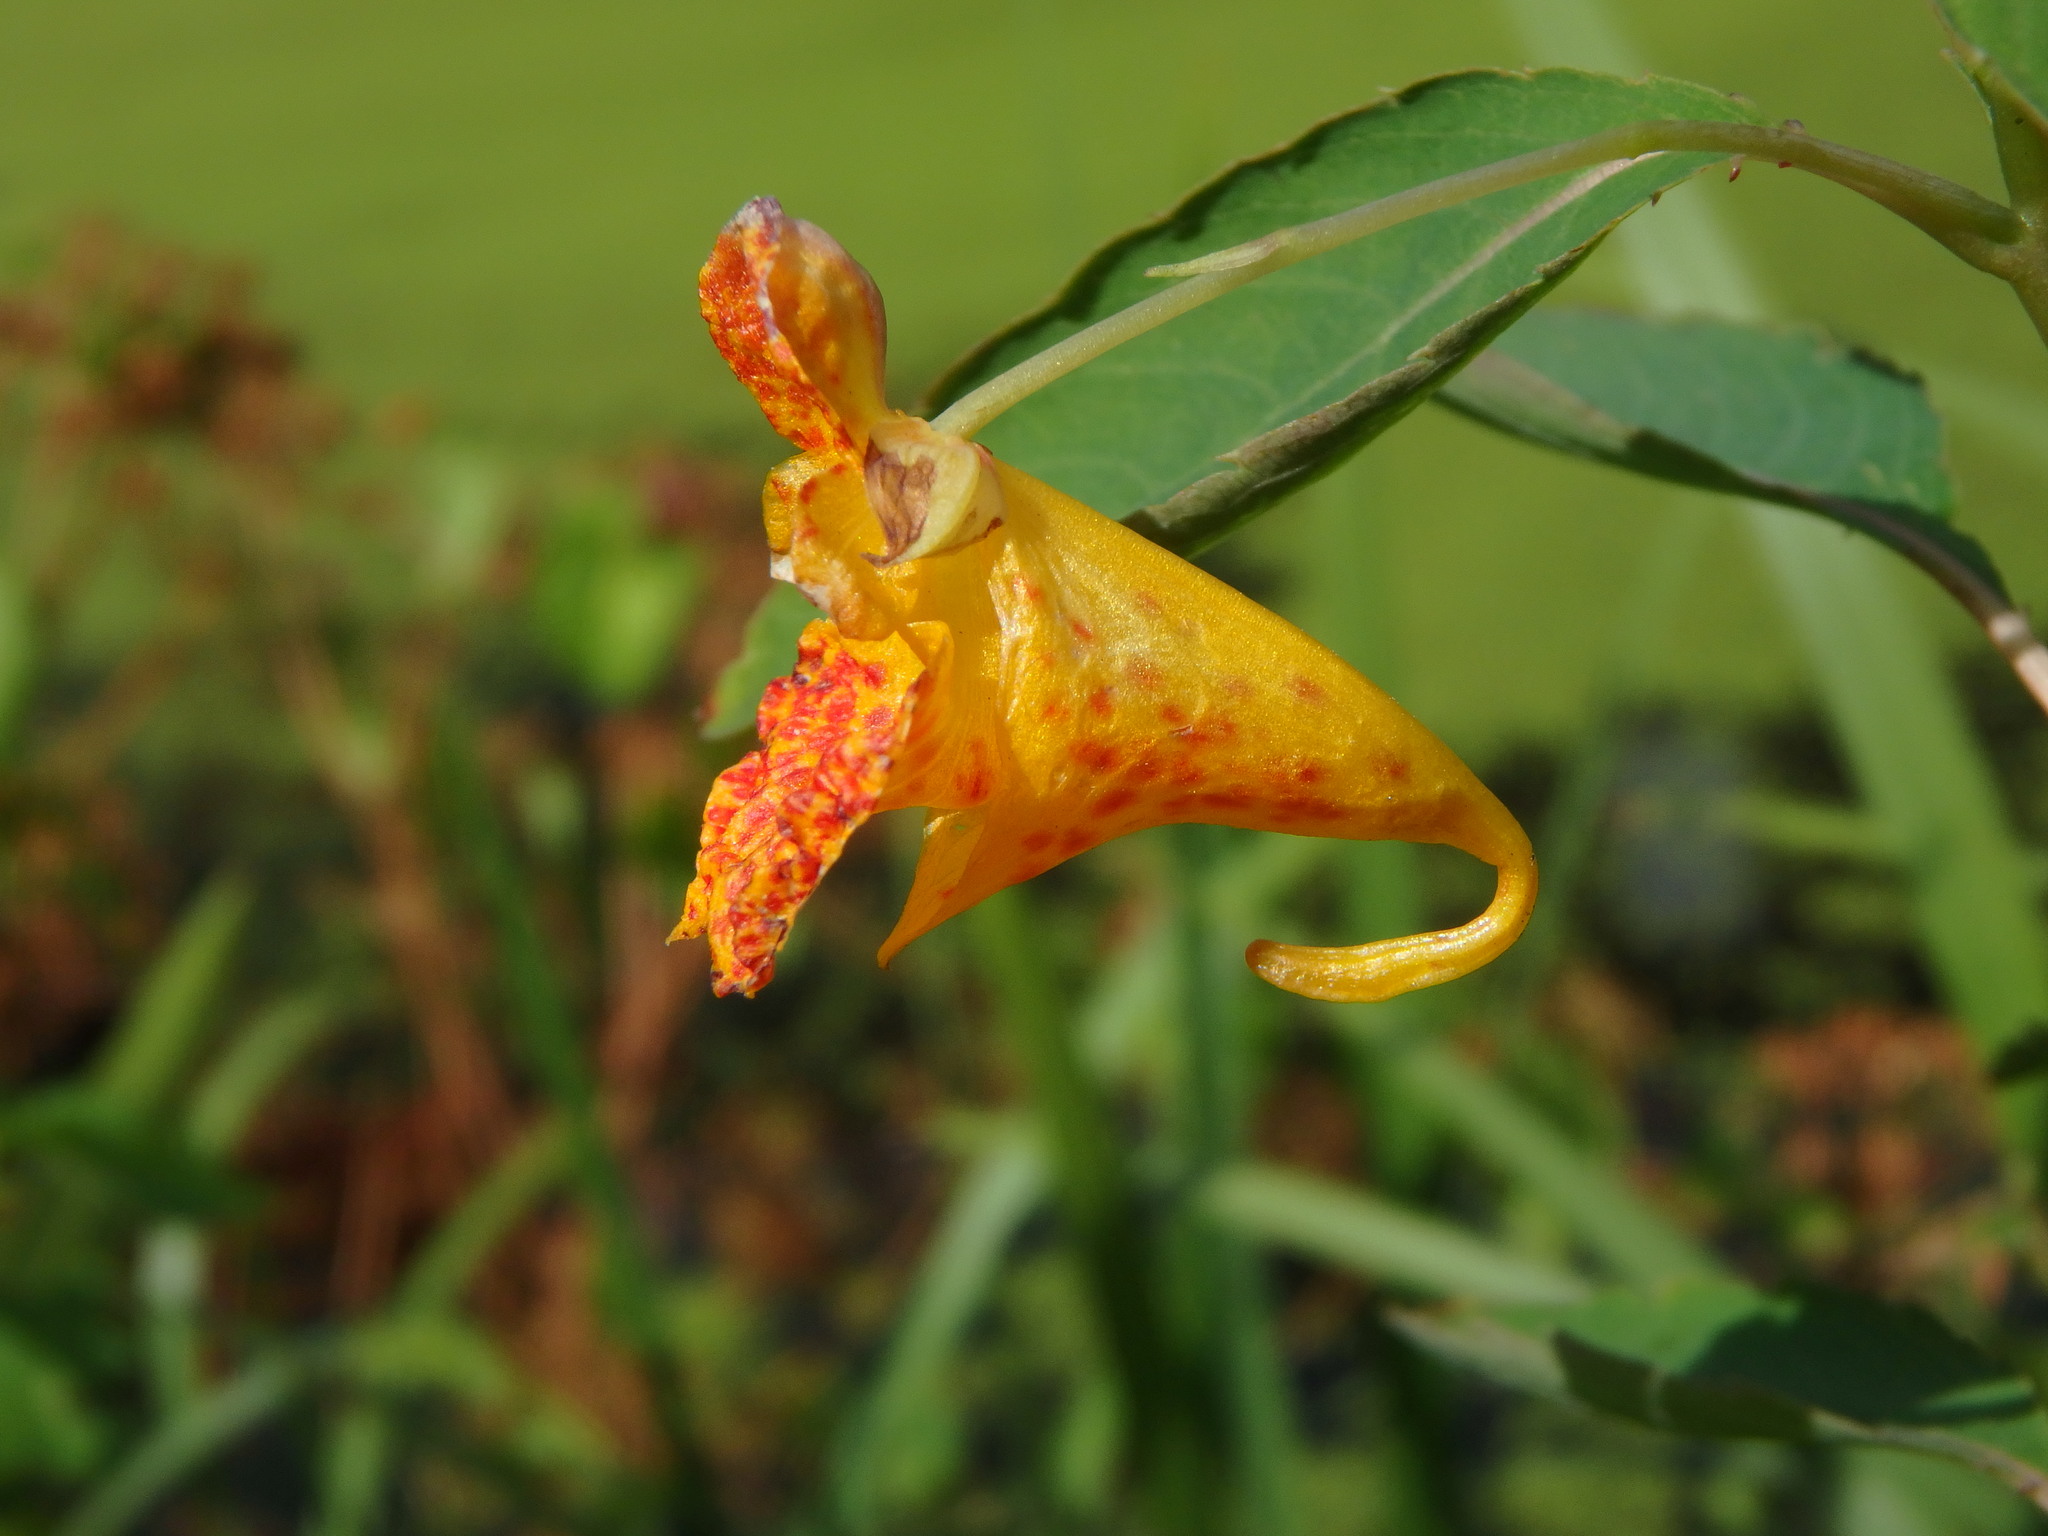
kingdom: Plantae
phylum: Tracheophyta
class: Magnoliopsida
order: Ericales
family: Balsaminaceae
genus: Impatiens
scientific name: Impatiens capensis
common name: Orange balsam
